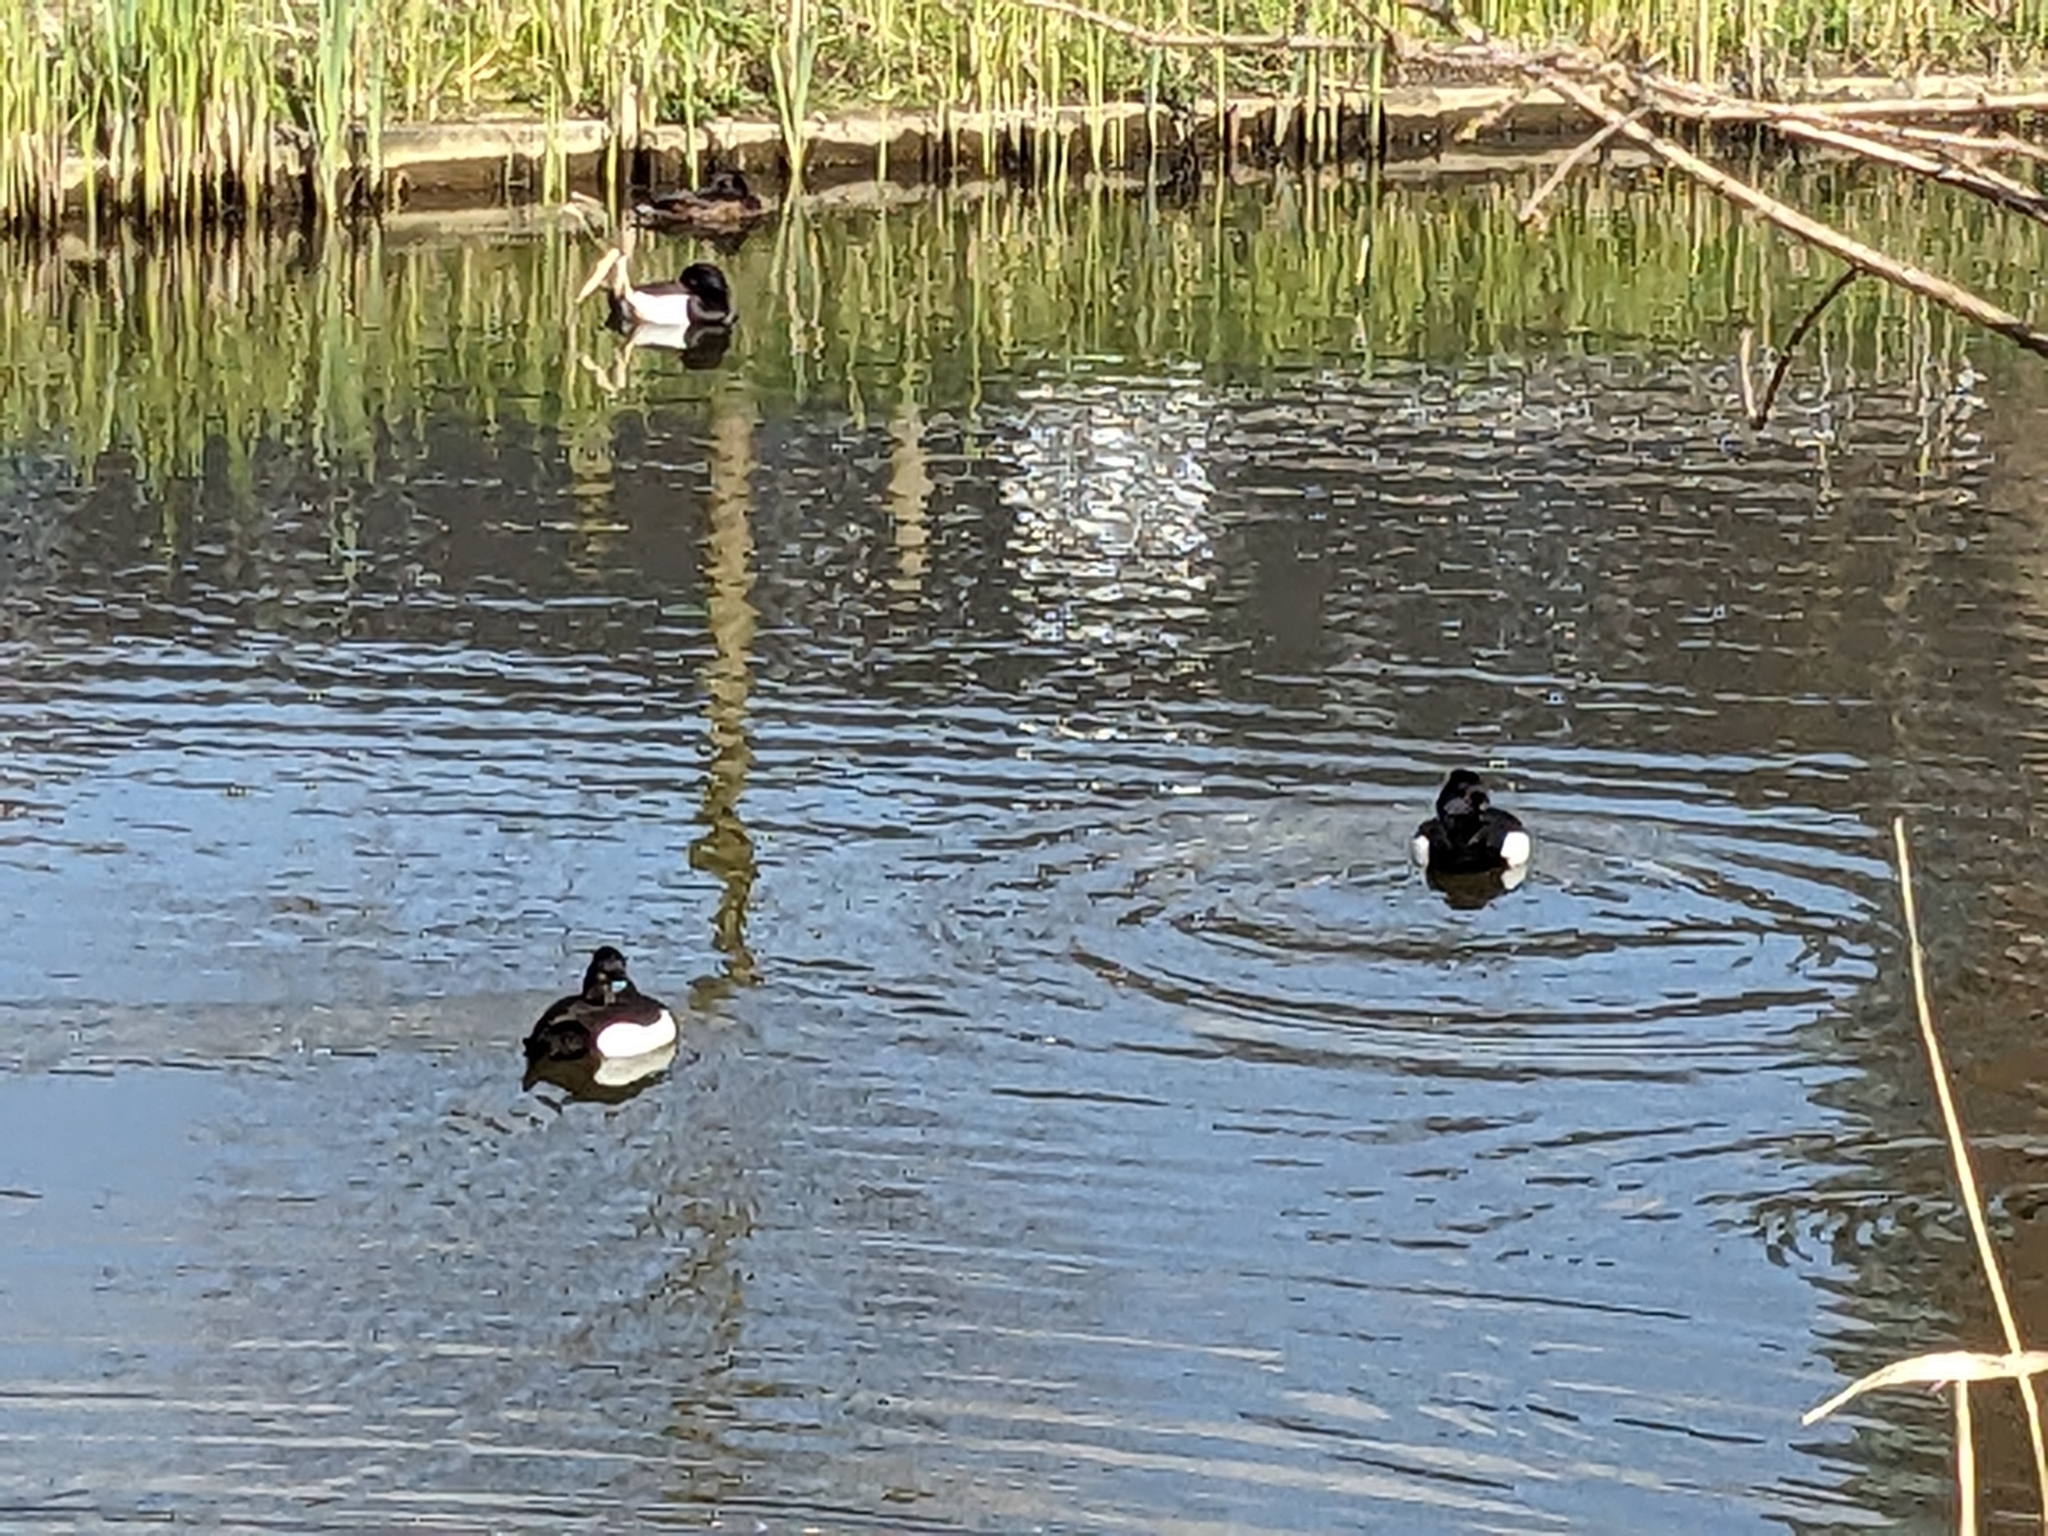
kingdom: Animalia
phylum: Chordata
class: Aves
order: Anseriformes
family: Anatidae
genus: Aythya
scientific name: Aythya fuligula
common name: Tufted duck
